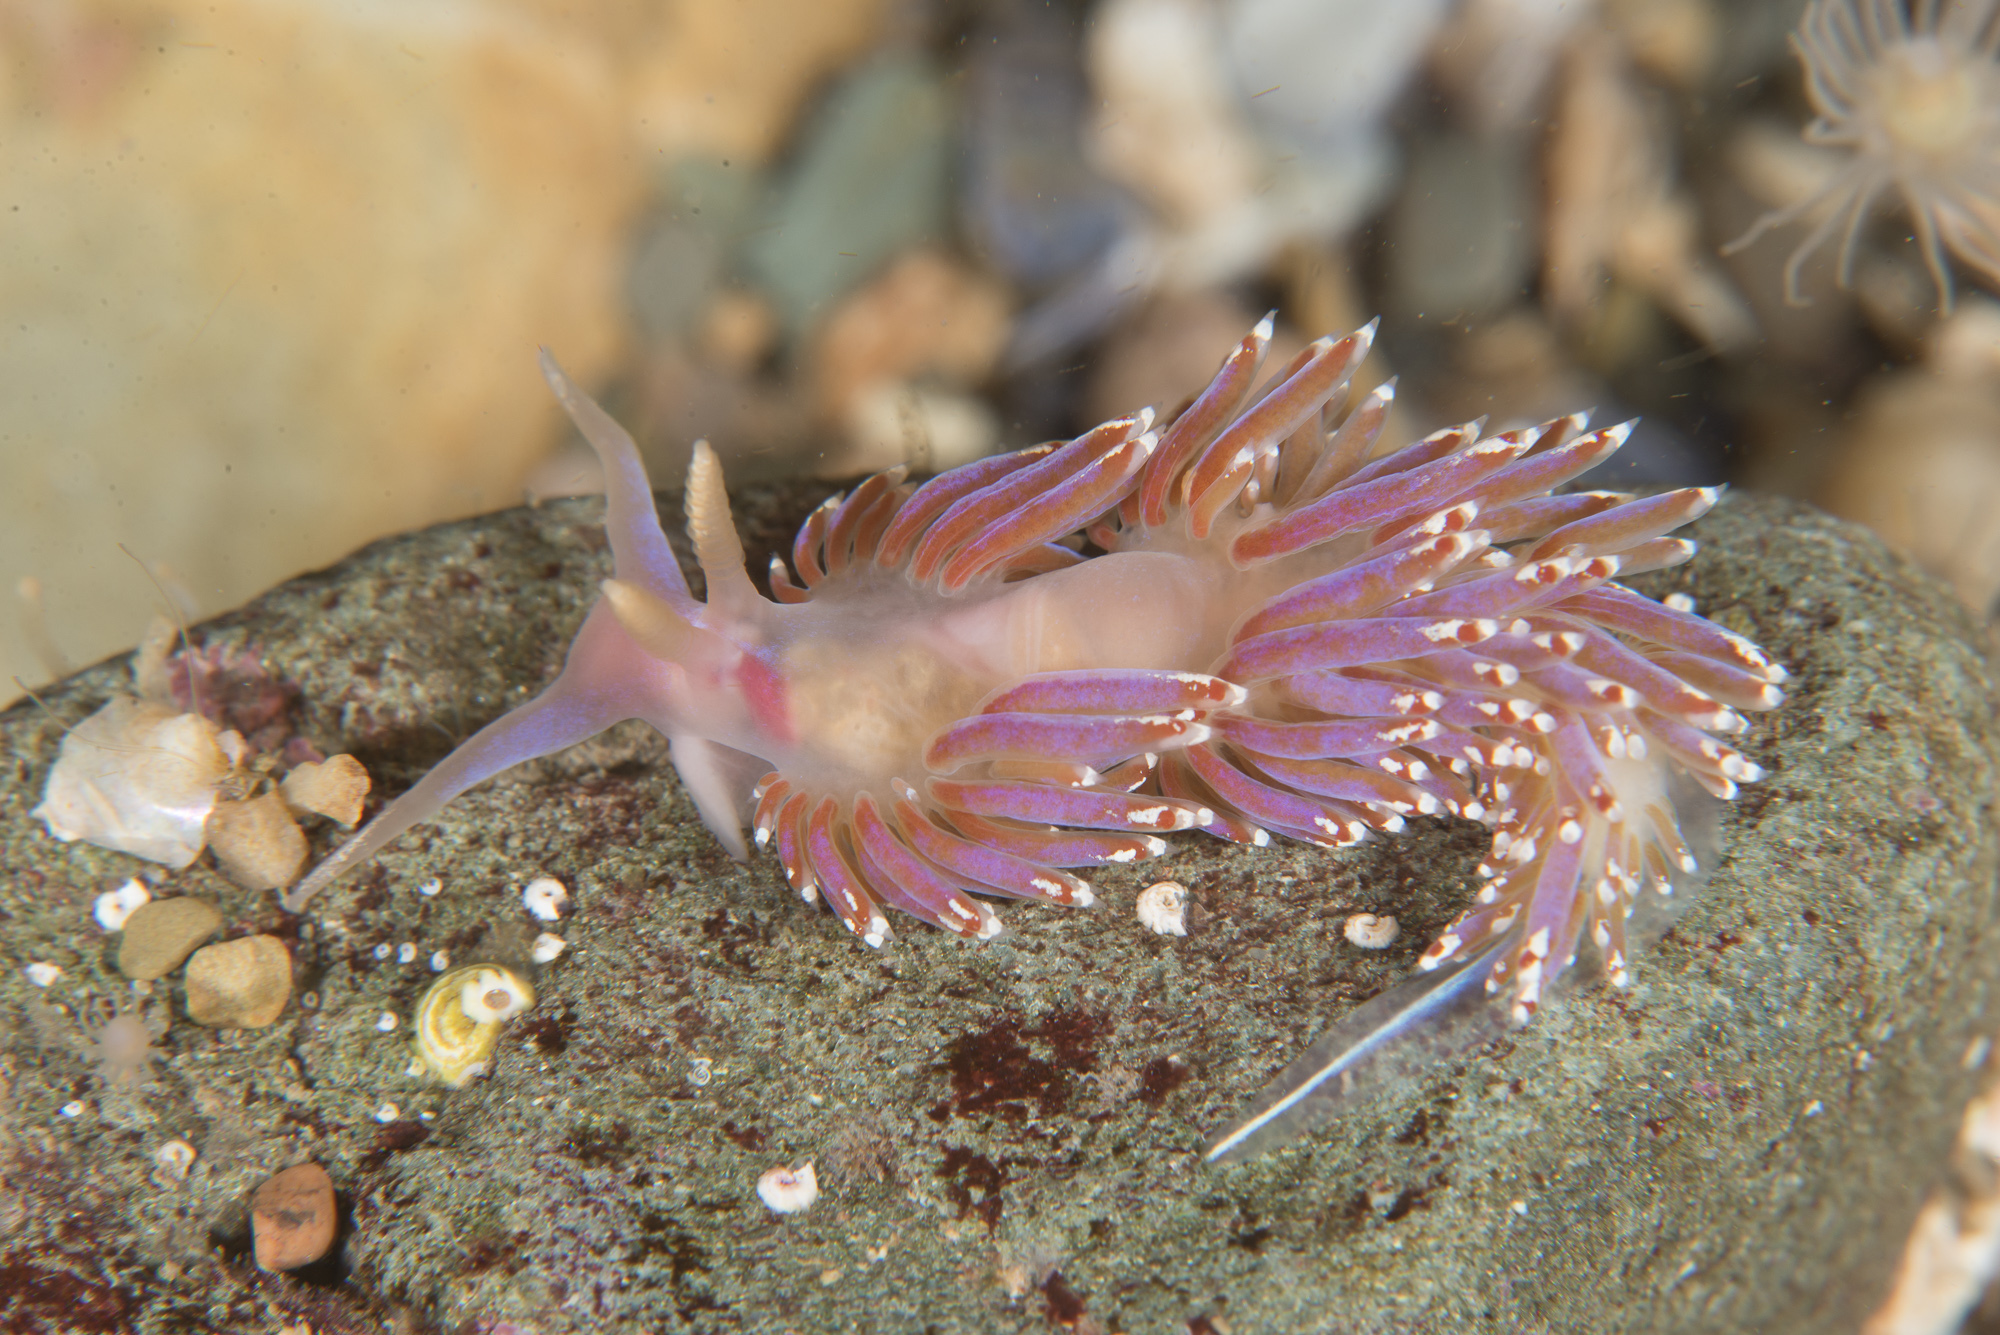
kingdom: Animalia
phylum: Mollusca
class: Gastropoda
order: Nudibranchia
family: Facelinidae
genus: Facelina
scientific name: Facelina auriculata
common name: Slender facelina
